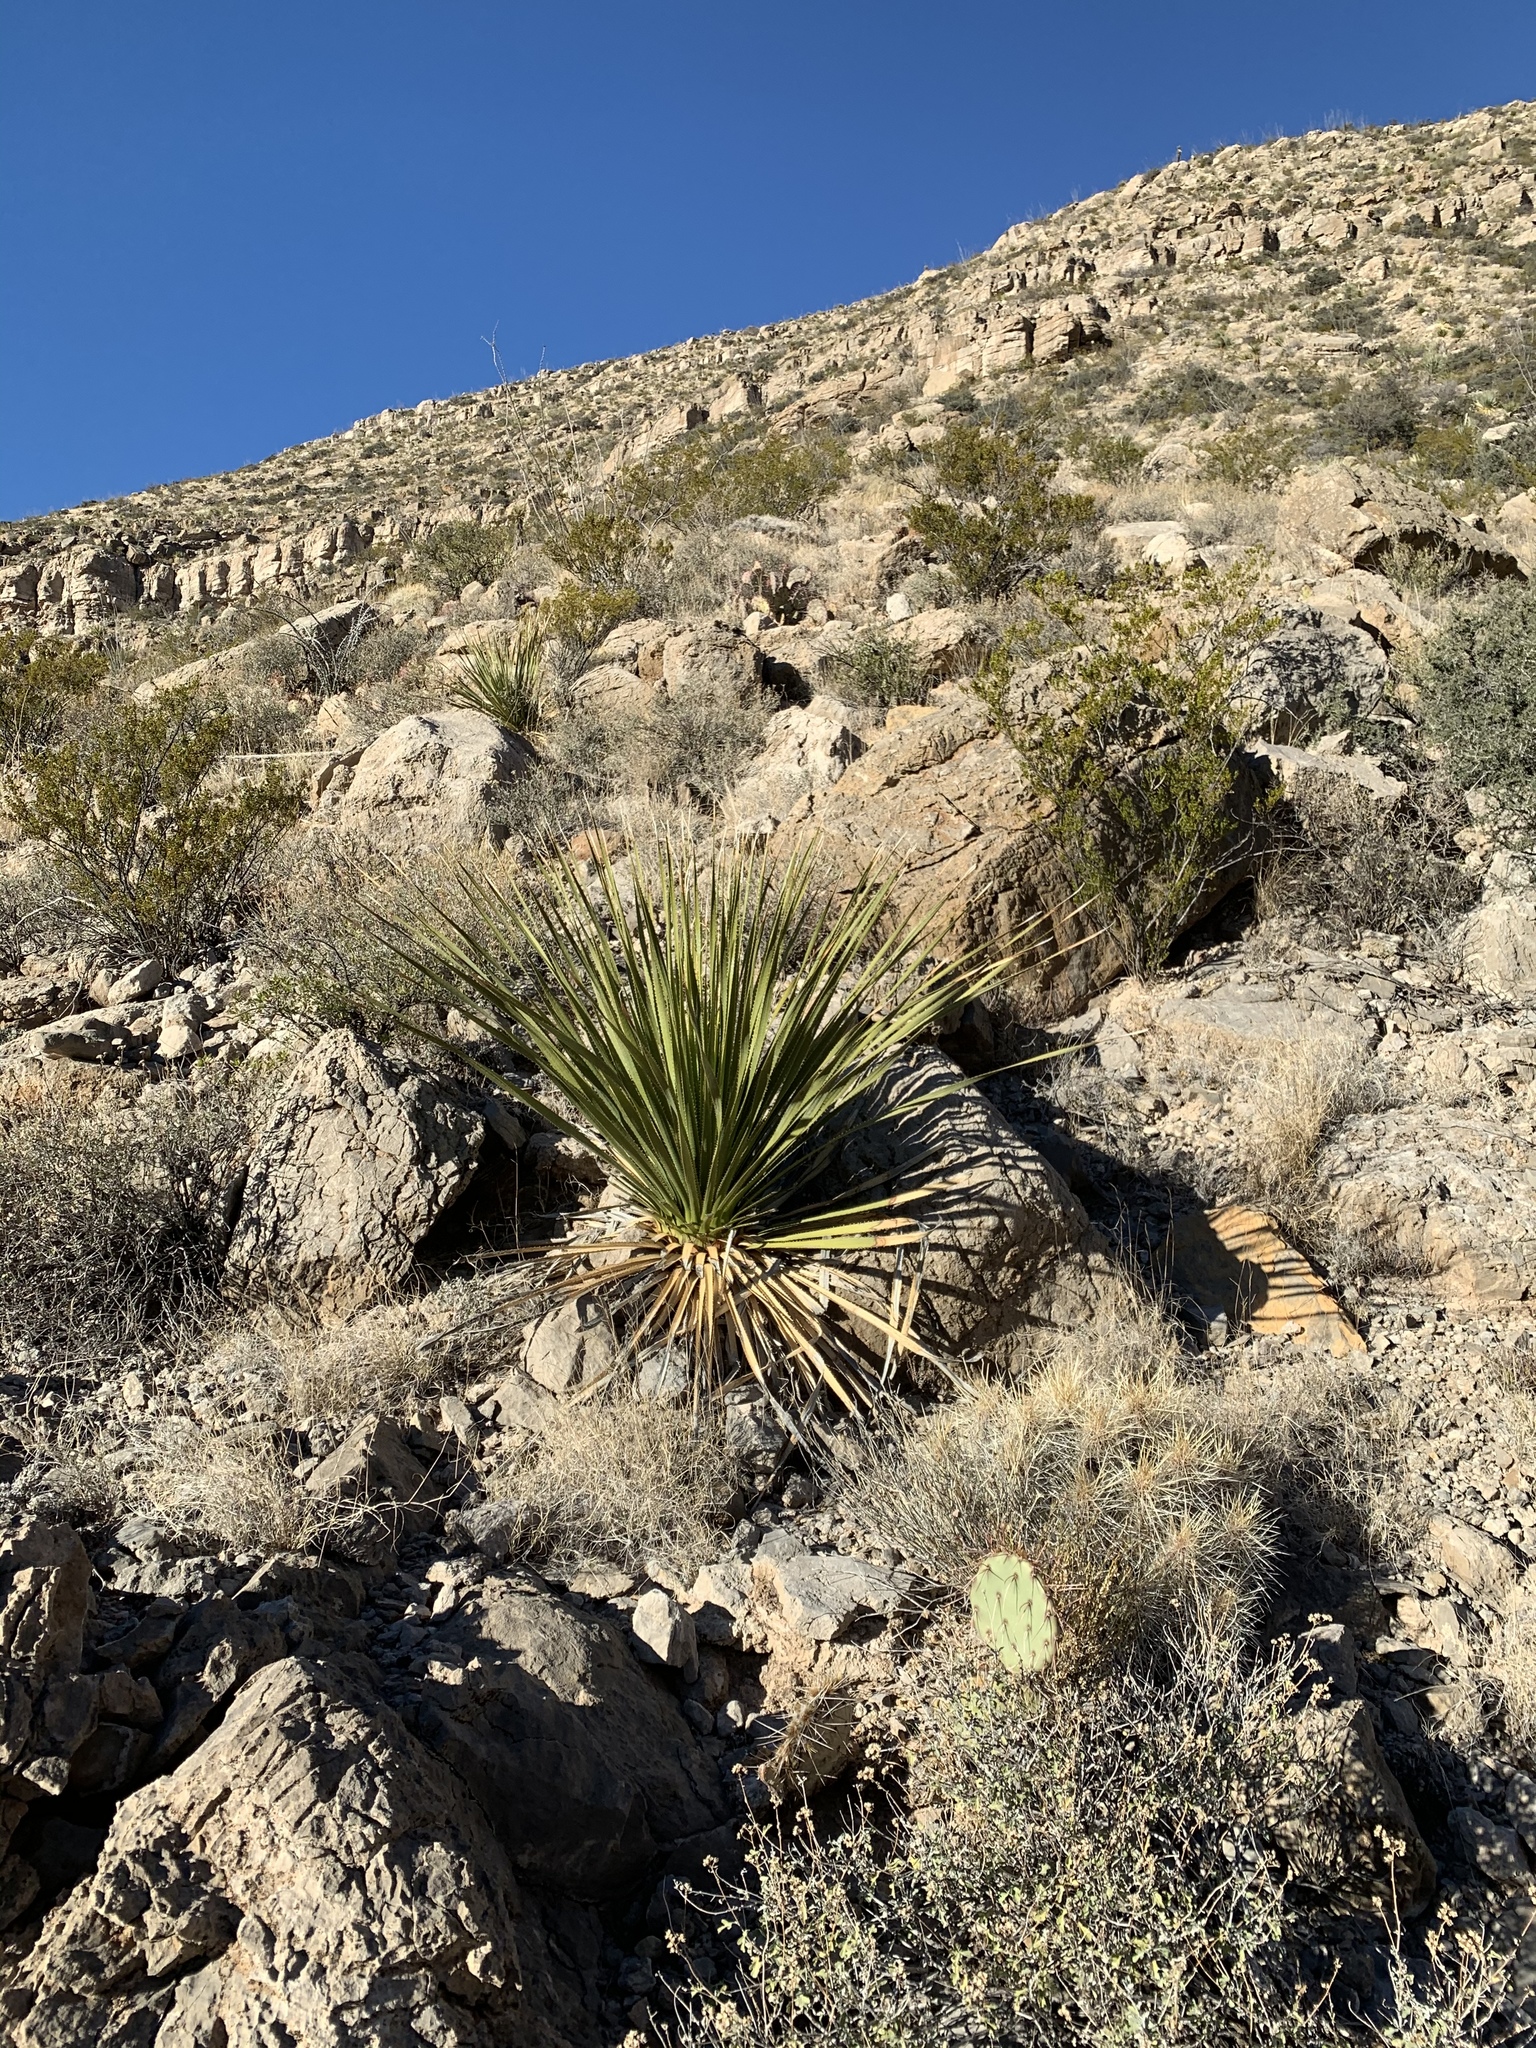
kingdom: Plantae
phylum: Tracheophyta
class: Liliopsida
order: Asparagales
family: Asparagaceae
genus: Dasylirion
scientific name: Dasylirion wheeleri
